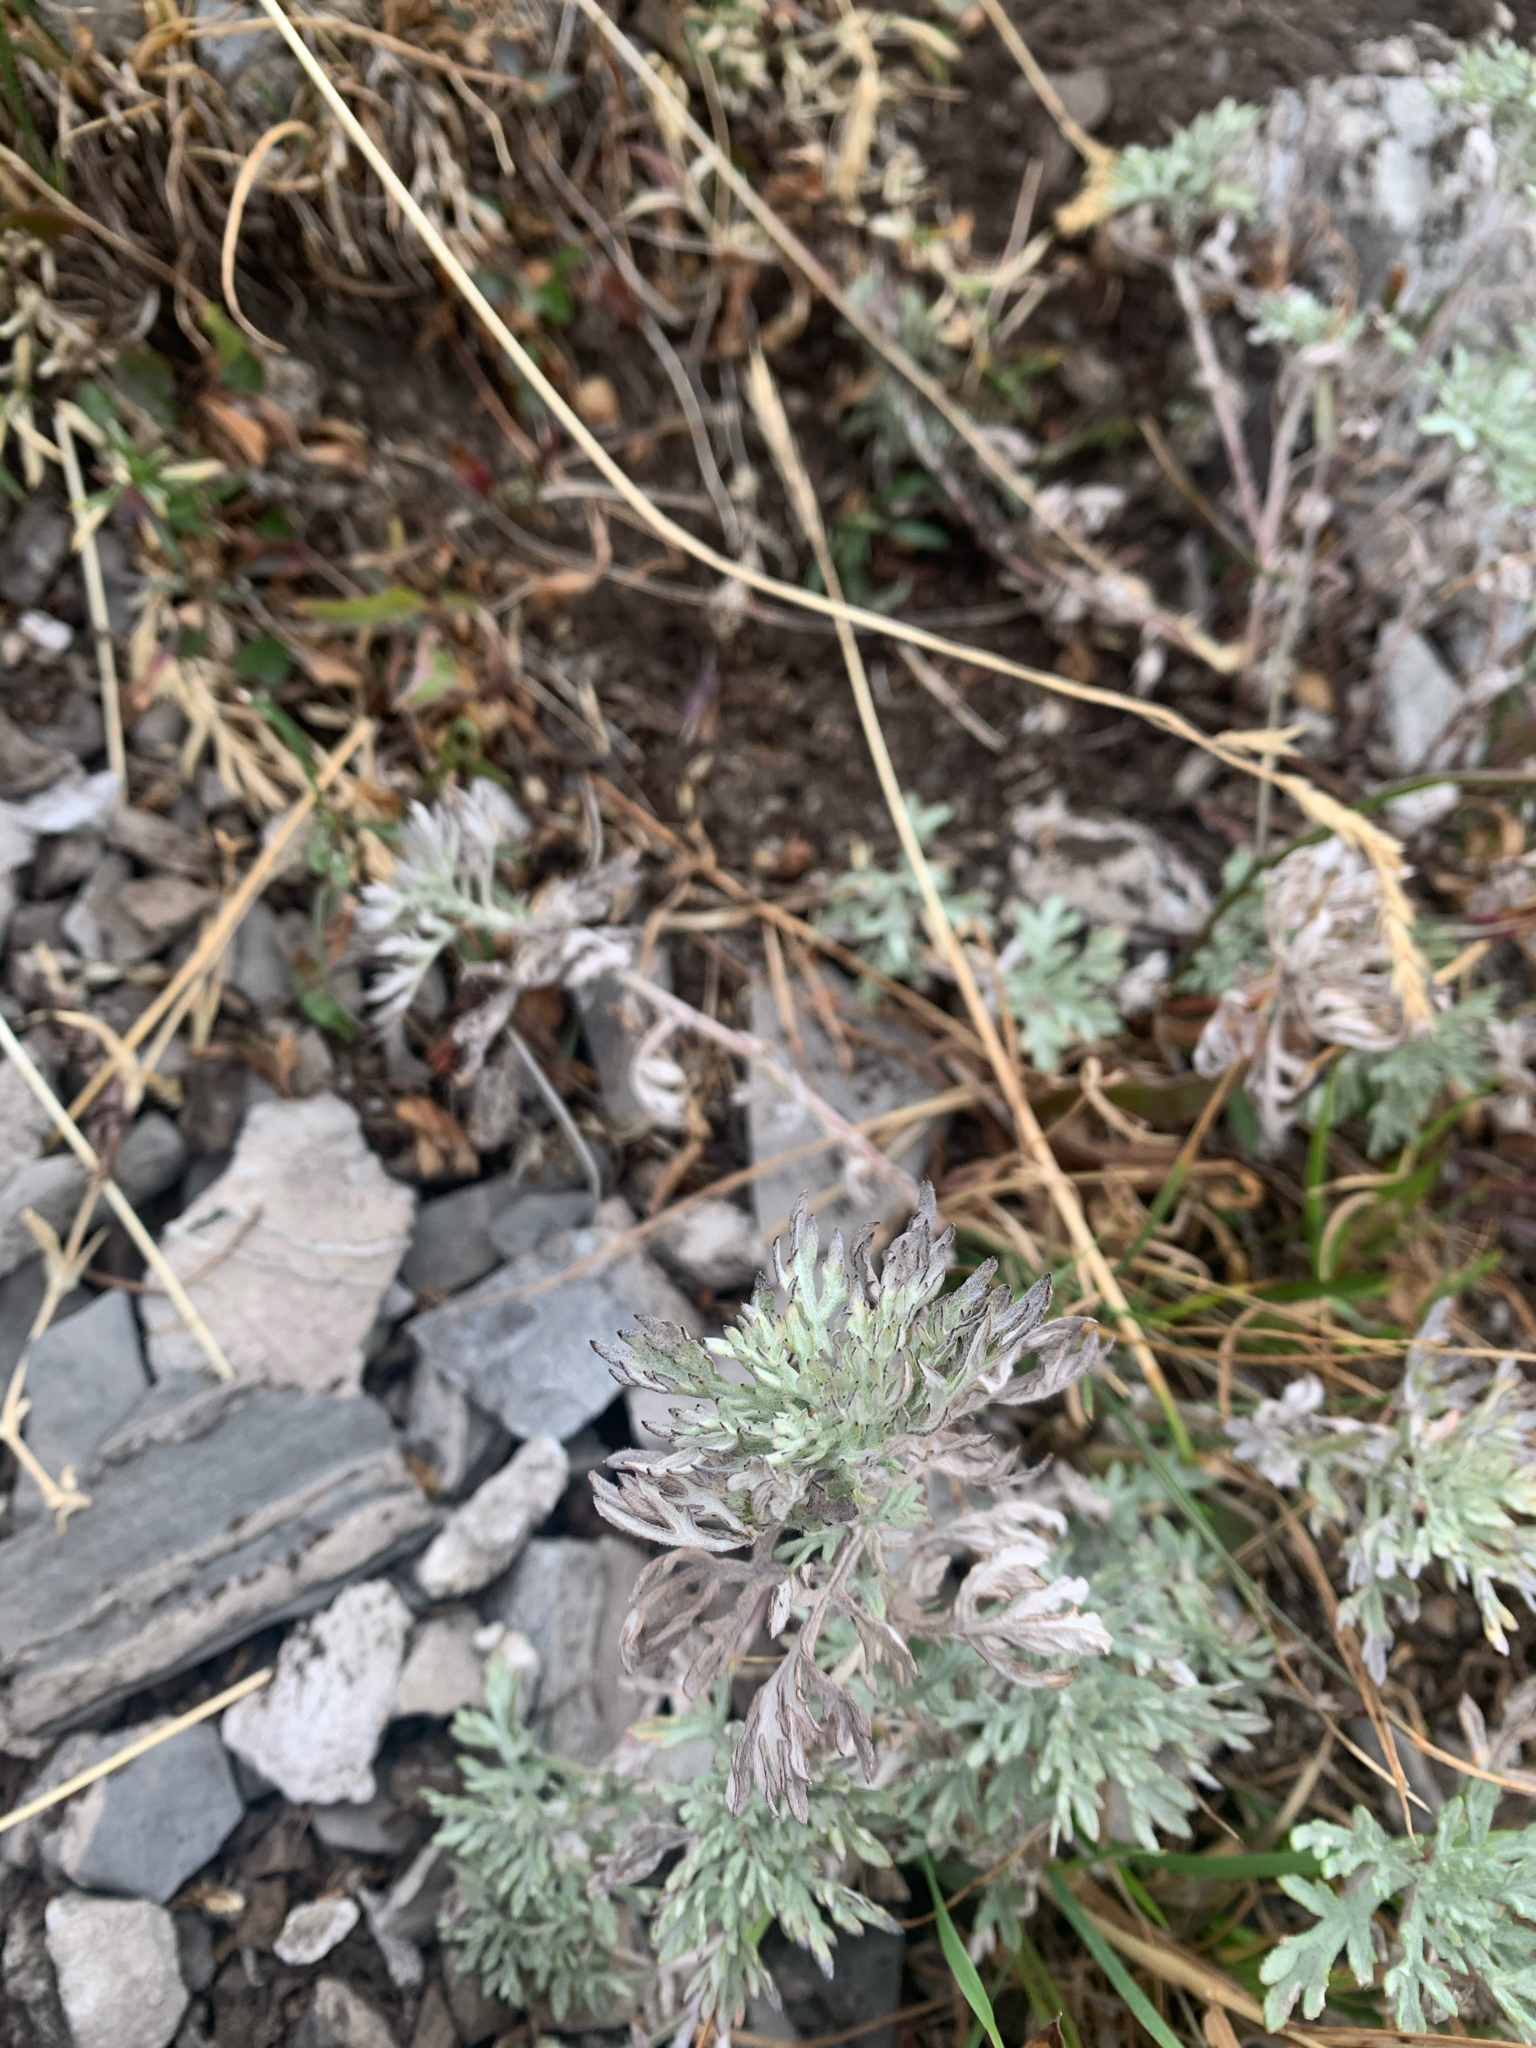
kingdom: Plantae
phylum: Tracheophyta
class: Magnoliopsida
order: Asterales
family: Asteraceae
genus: Artemisia
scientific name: Artemisia frigida
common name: Prairie sagewort
